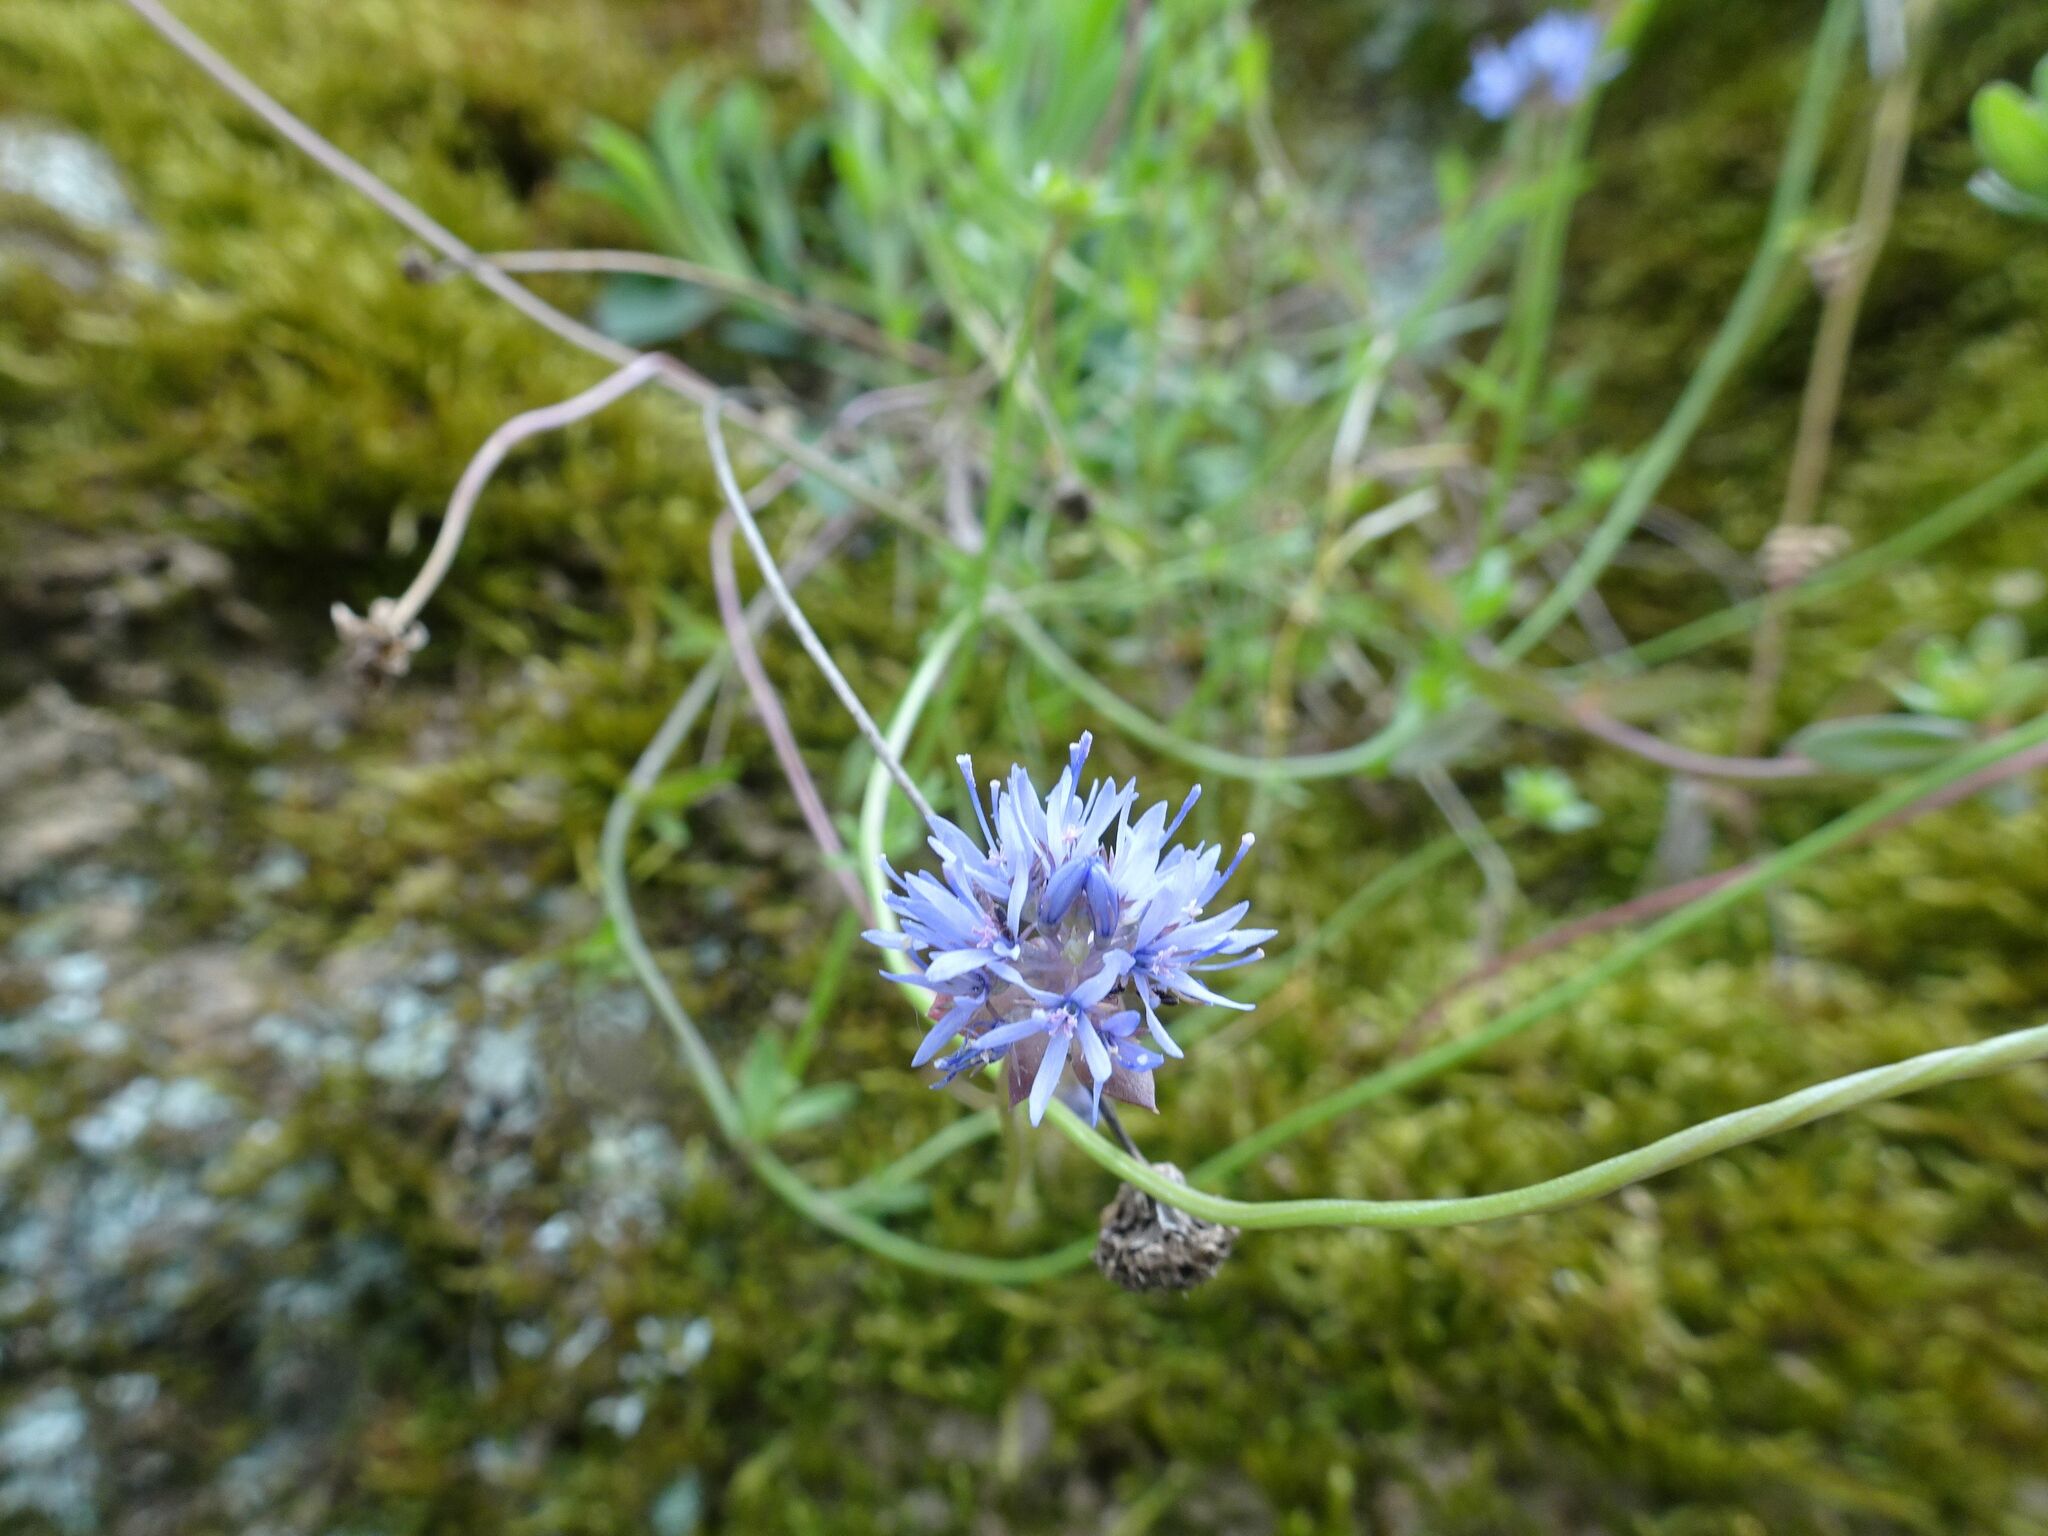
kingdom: Plantae
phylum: Tracheophyta
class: Magnoliopsida
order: Asterales
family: Campanulaceae
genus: Jasione
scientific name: Jasione montana
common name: Sheep's-bit
